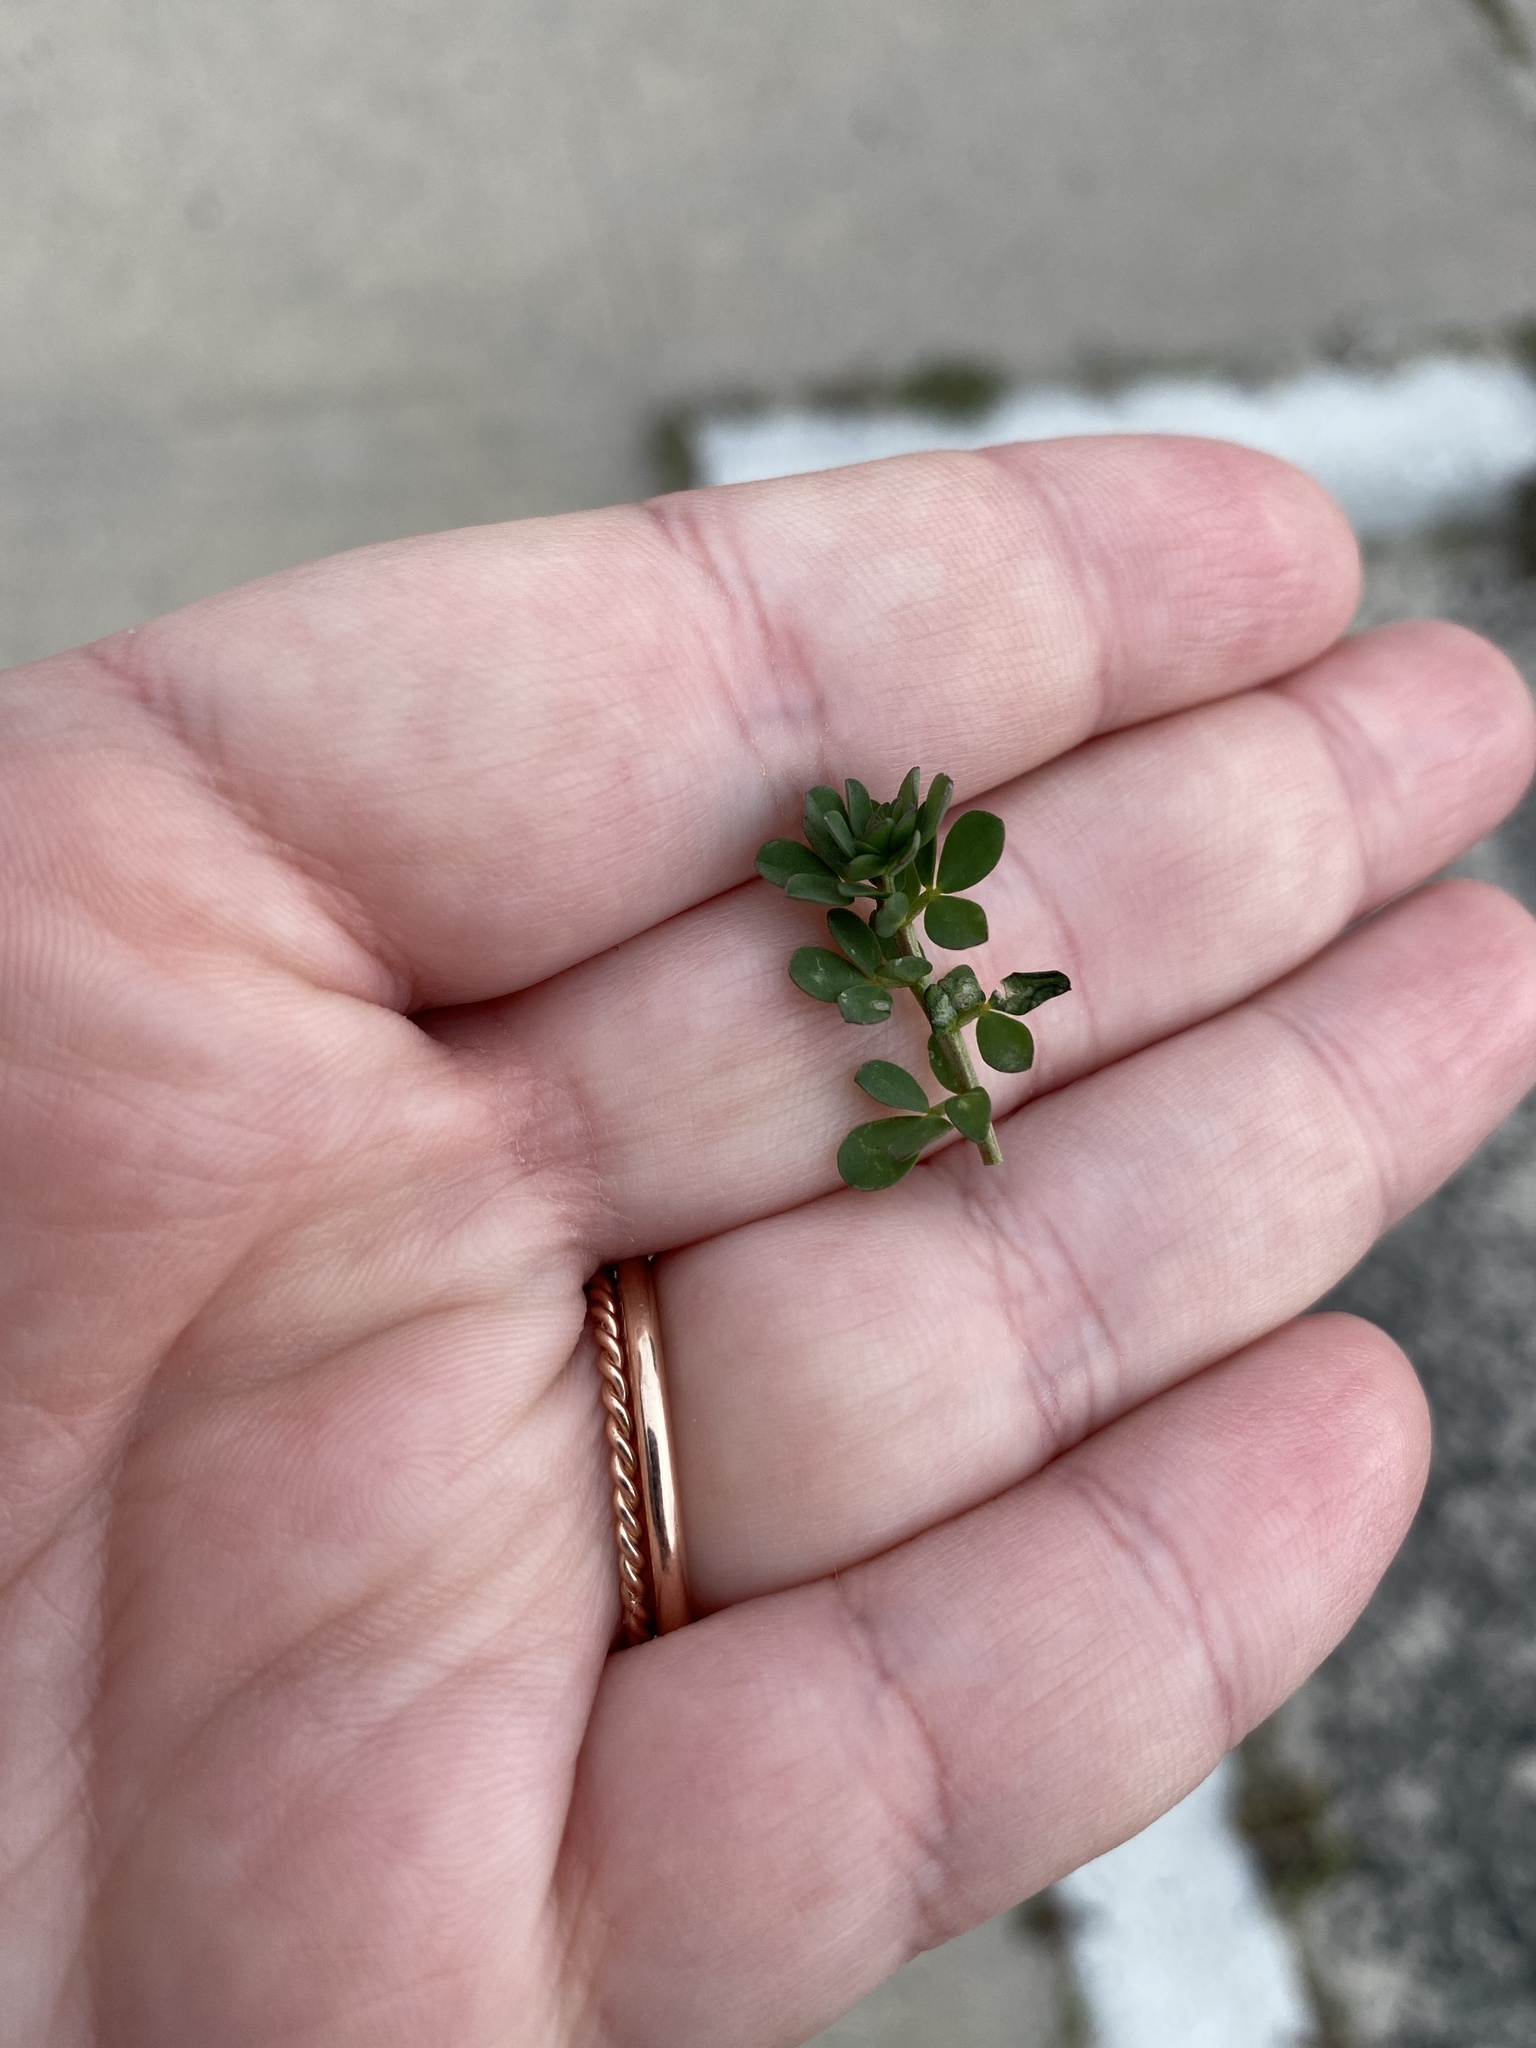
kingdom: Plantae
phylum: Tracheophyta
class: Magnoliopsida
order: Fabales
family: Fabaceae
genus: Lotus
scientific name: Lotus corniculatus
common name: Common bird's-foot-trefoil
